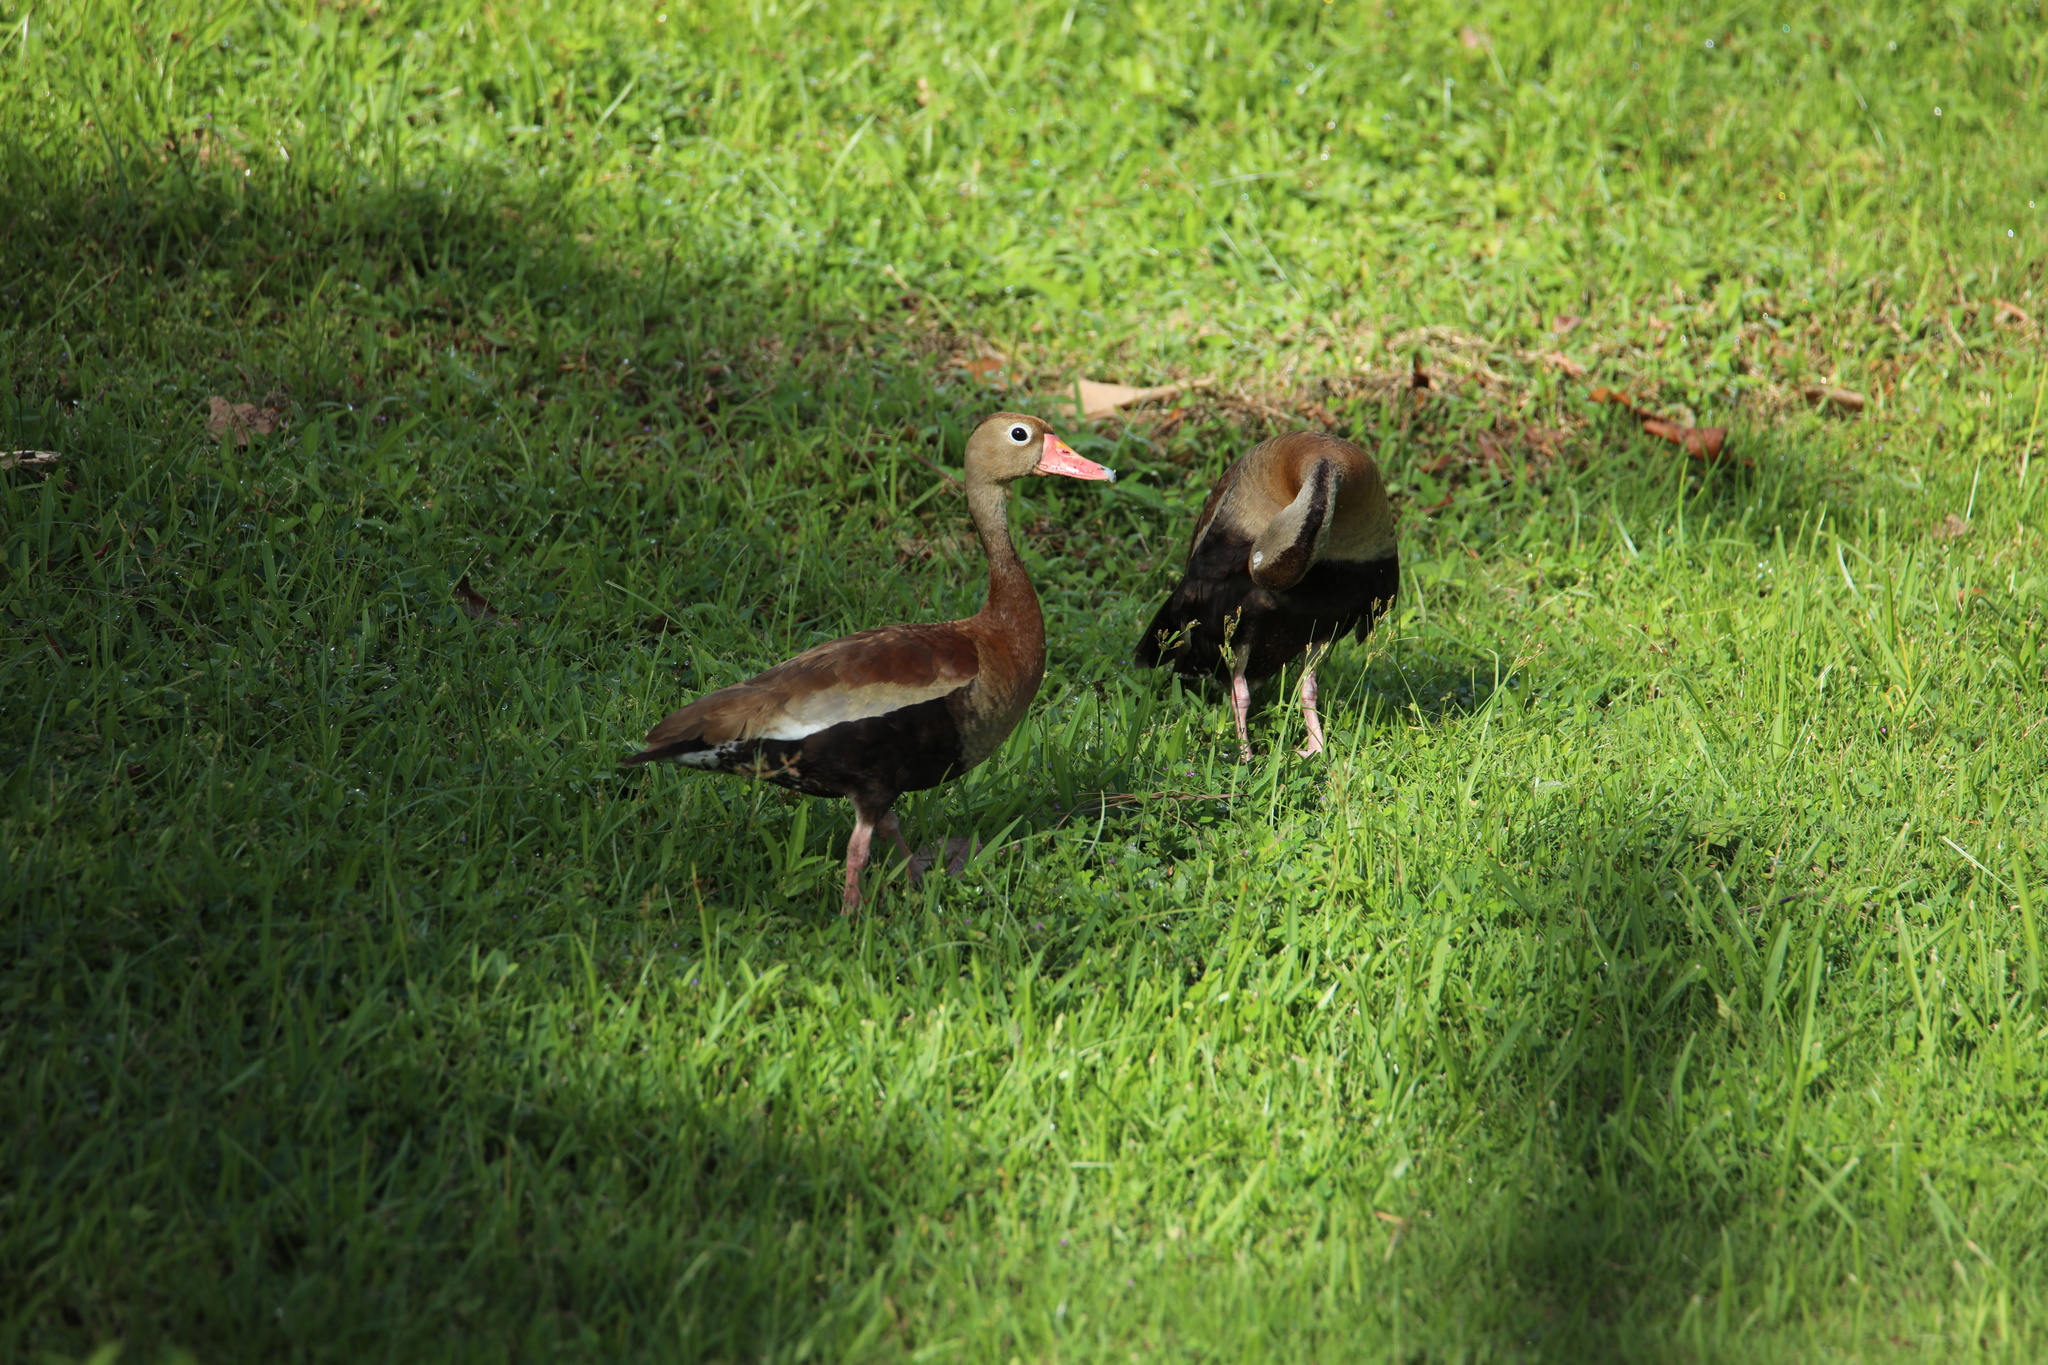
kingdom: Animalia
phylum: Chordata
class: Aves
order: Anseriformes
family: Anatidae
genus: Dendrocygna
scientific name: Dendrocygna autumnalis
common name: Black-bellied whistling duck
